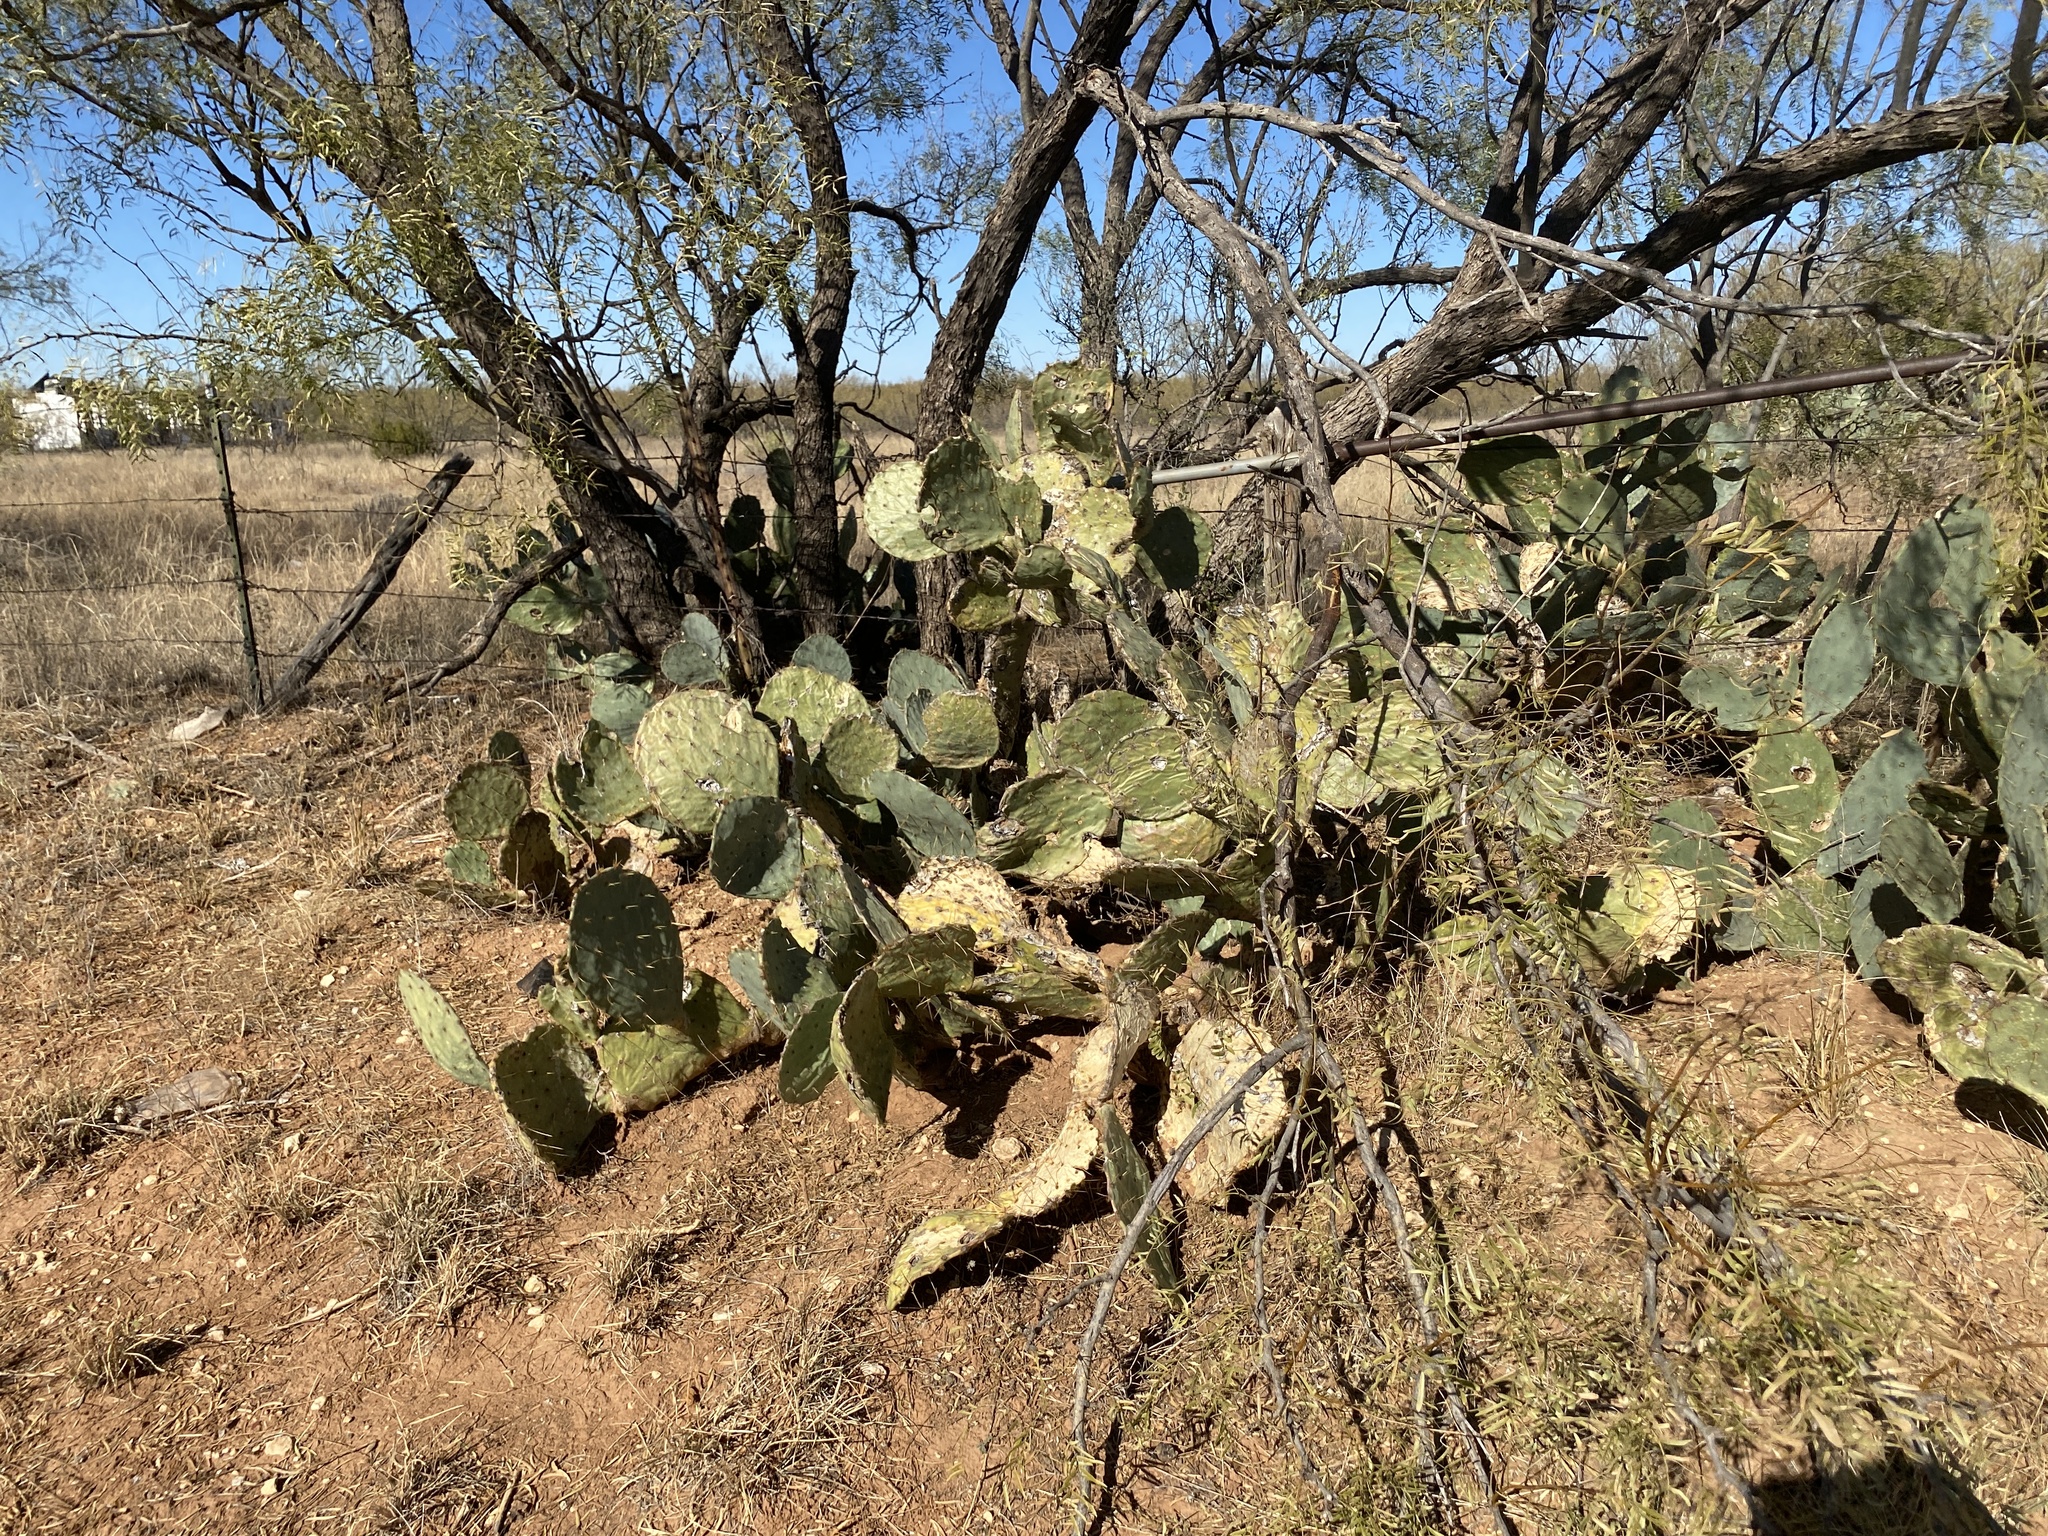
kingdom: Plantae
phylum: Tracheophyta
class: Magnoliopsida
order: Caryophyllales
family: Cactaceae
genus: Opuntia
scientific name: Opuntia orbiculata
